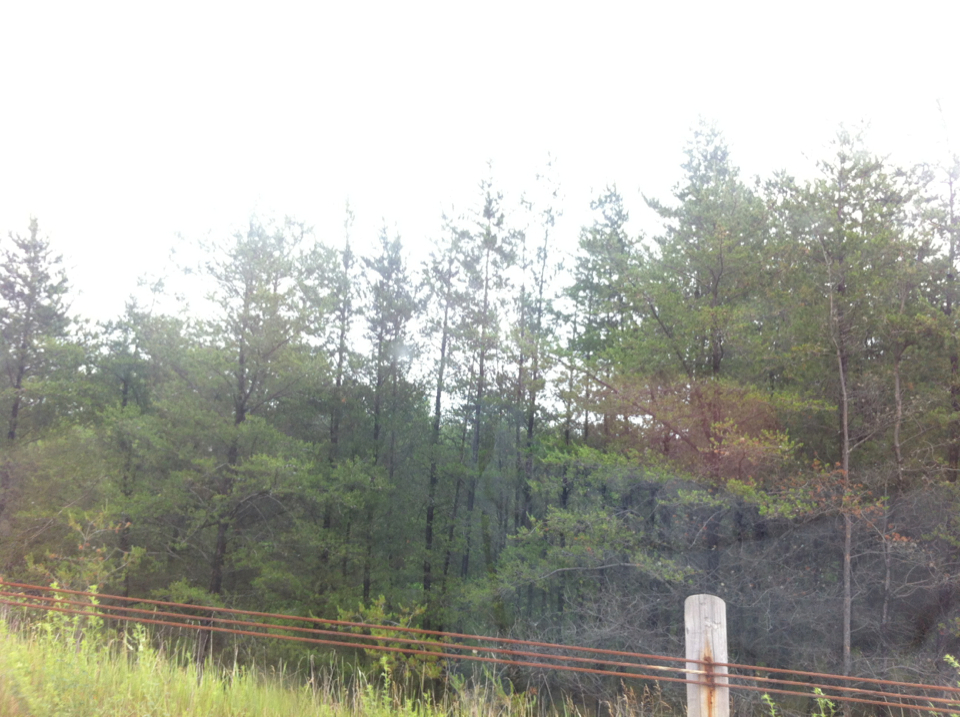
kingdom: Plantae
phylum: Tracheophyta
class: Pinopsida
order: Pinales
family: Pinaceae
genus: Pinus
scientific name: Pinus banksiana
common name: Jack pine
